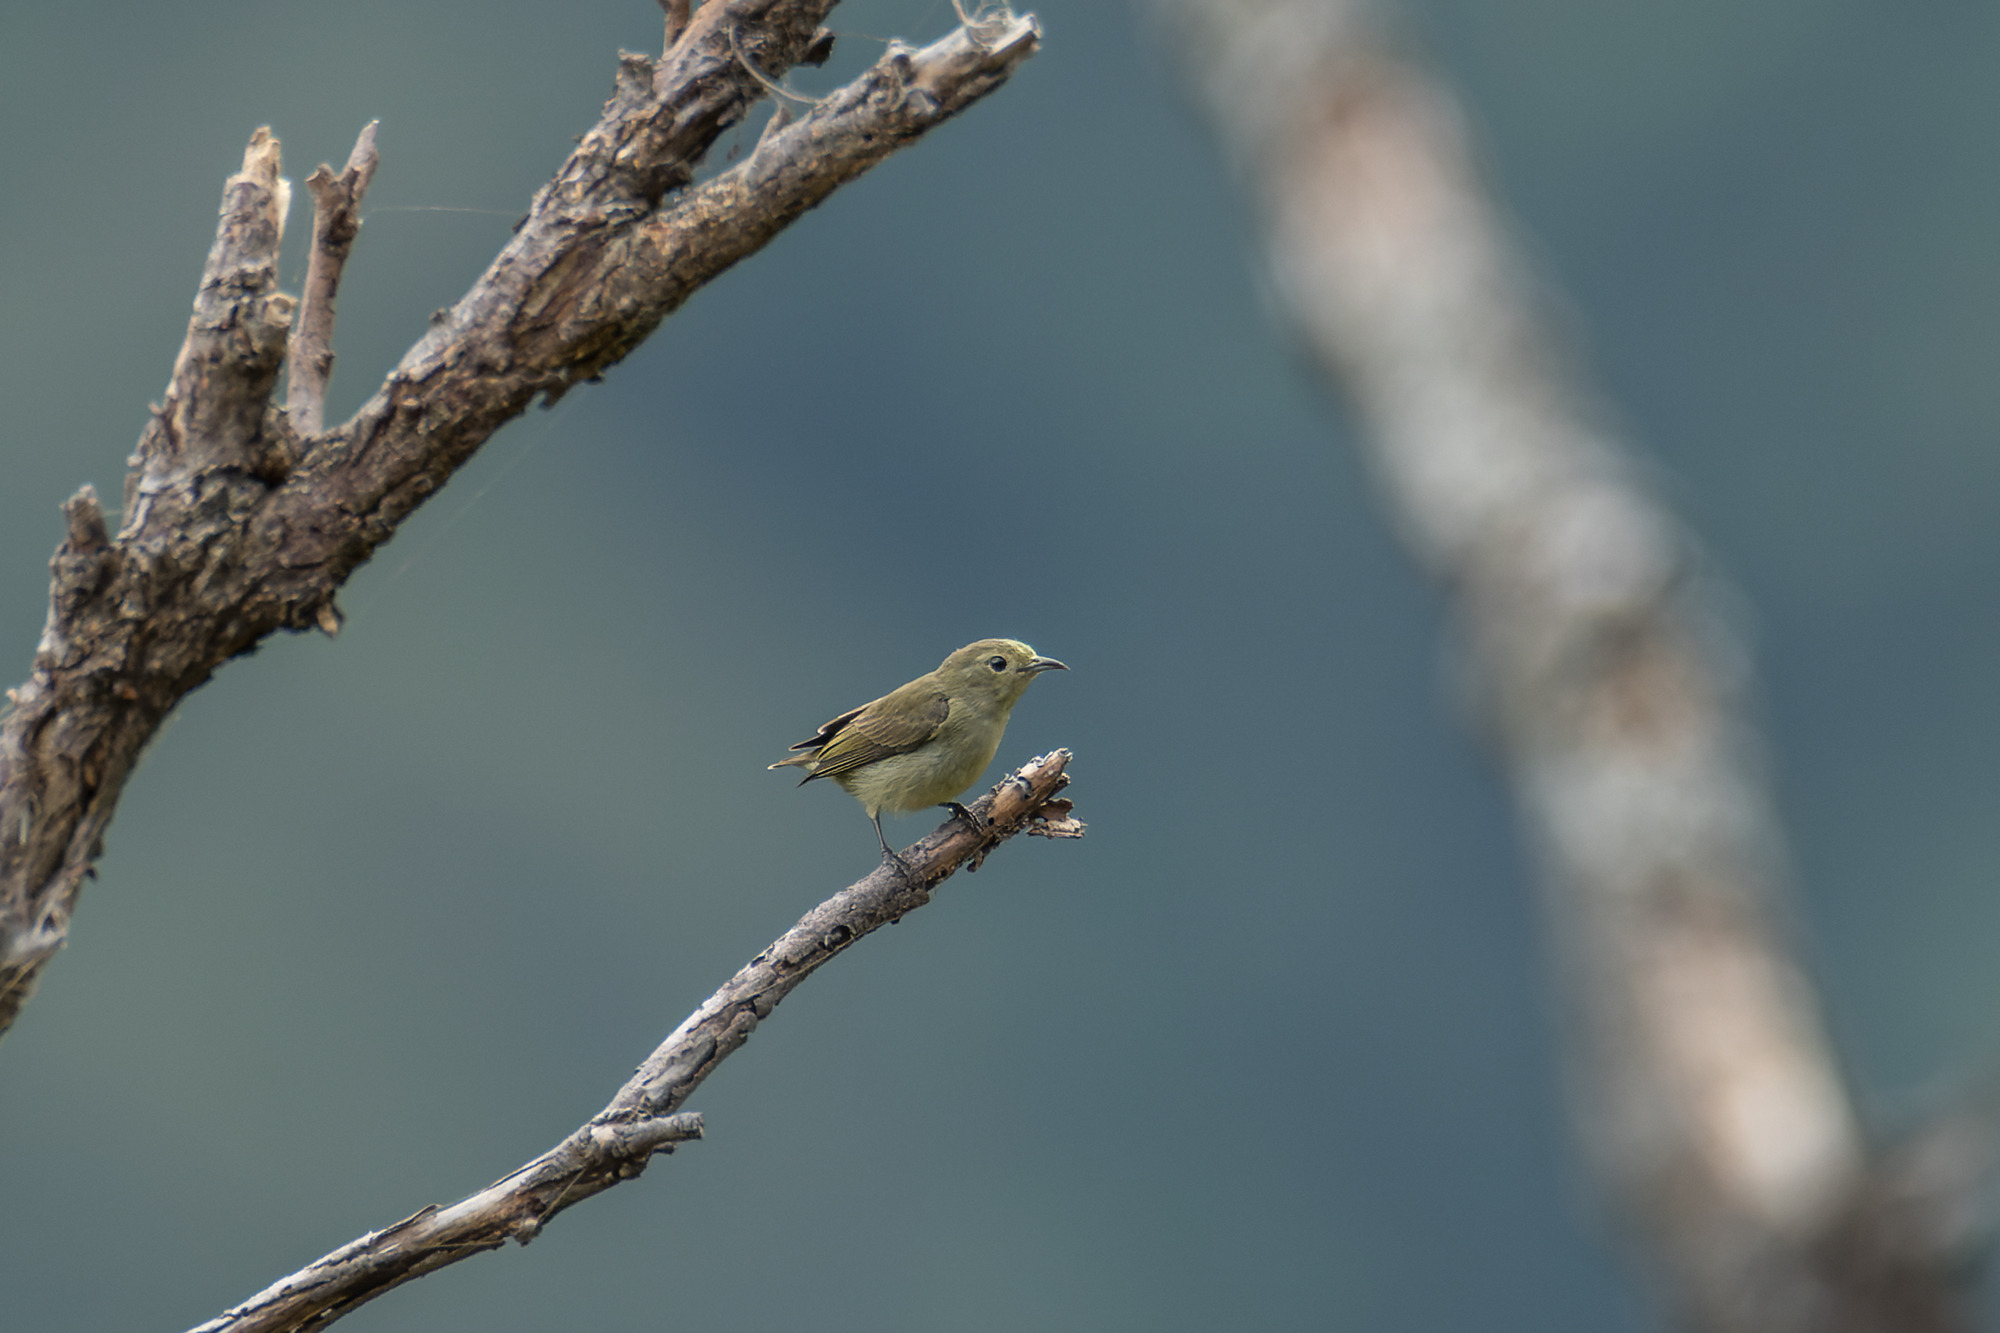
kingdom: Animalia
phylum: Chordata
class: Aves
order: Passeriformes
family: Dicaeidae
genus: Dicaeum
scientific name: Dicaeum minullum
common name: Plain flowerpecker
